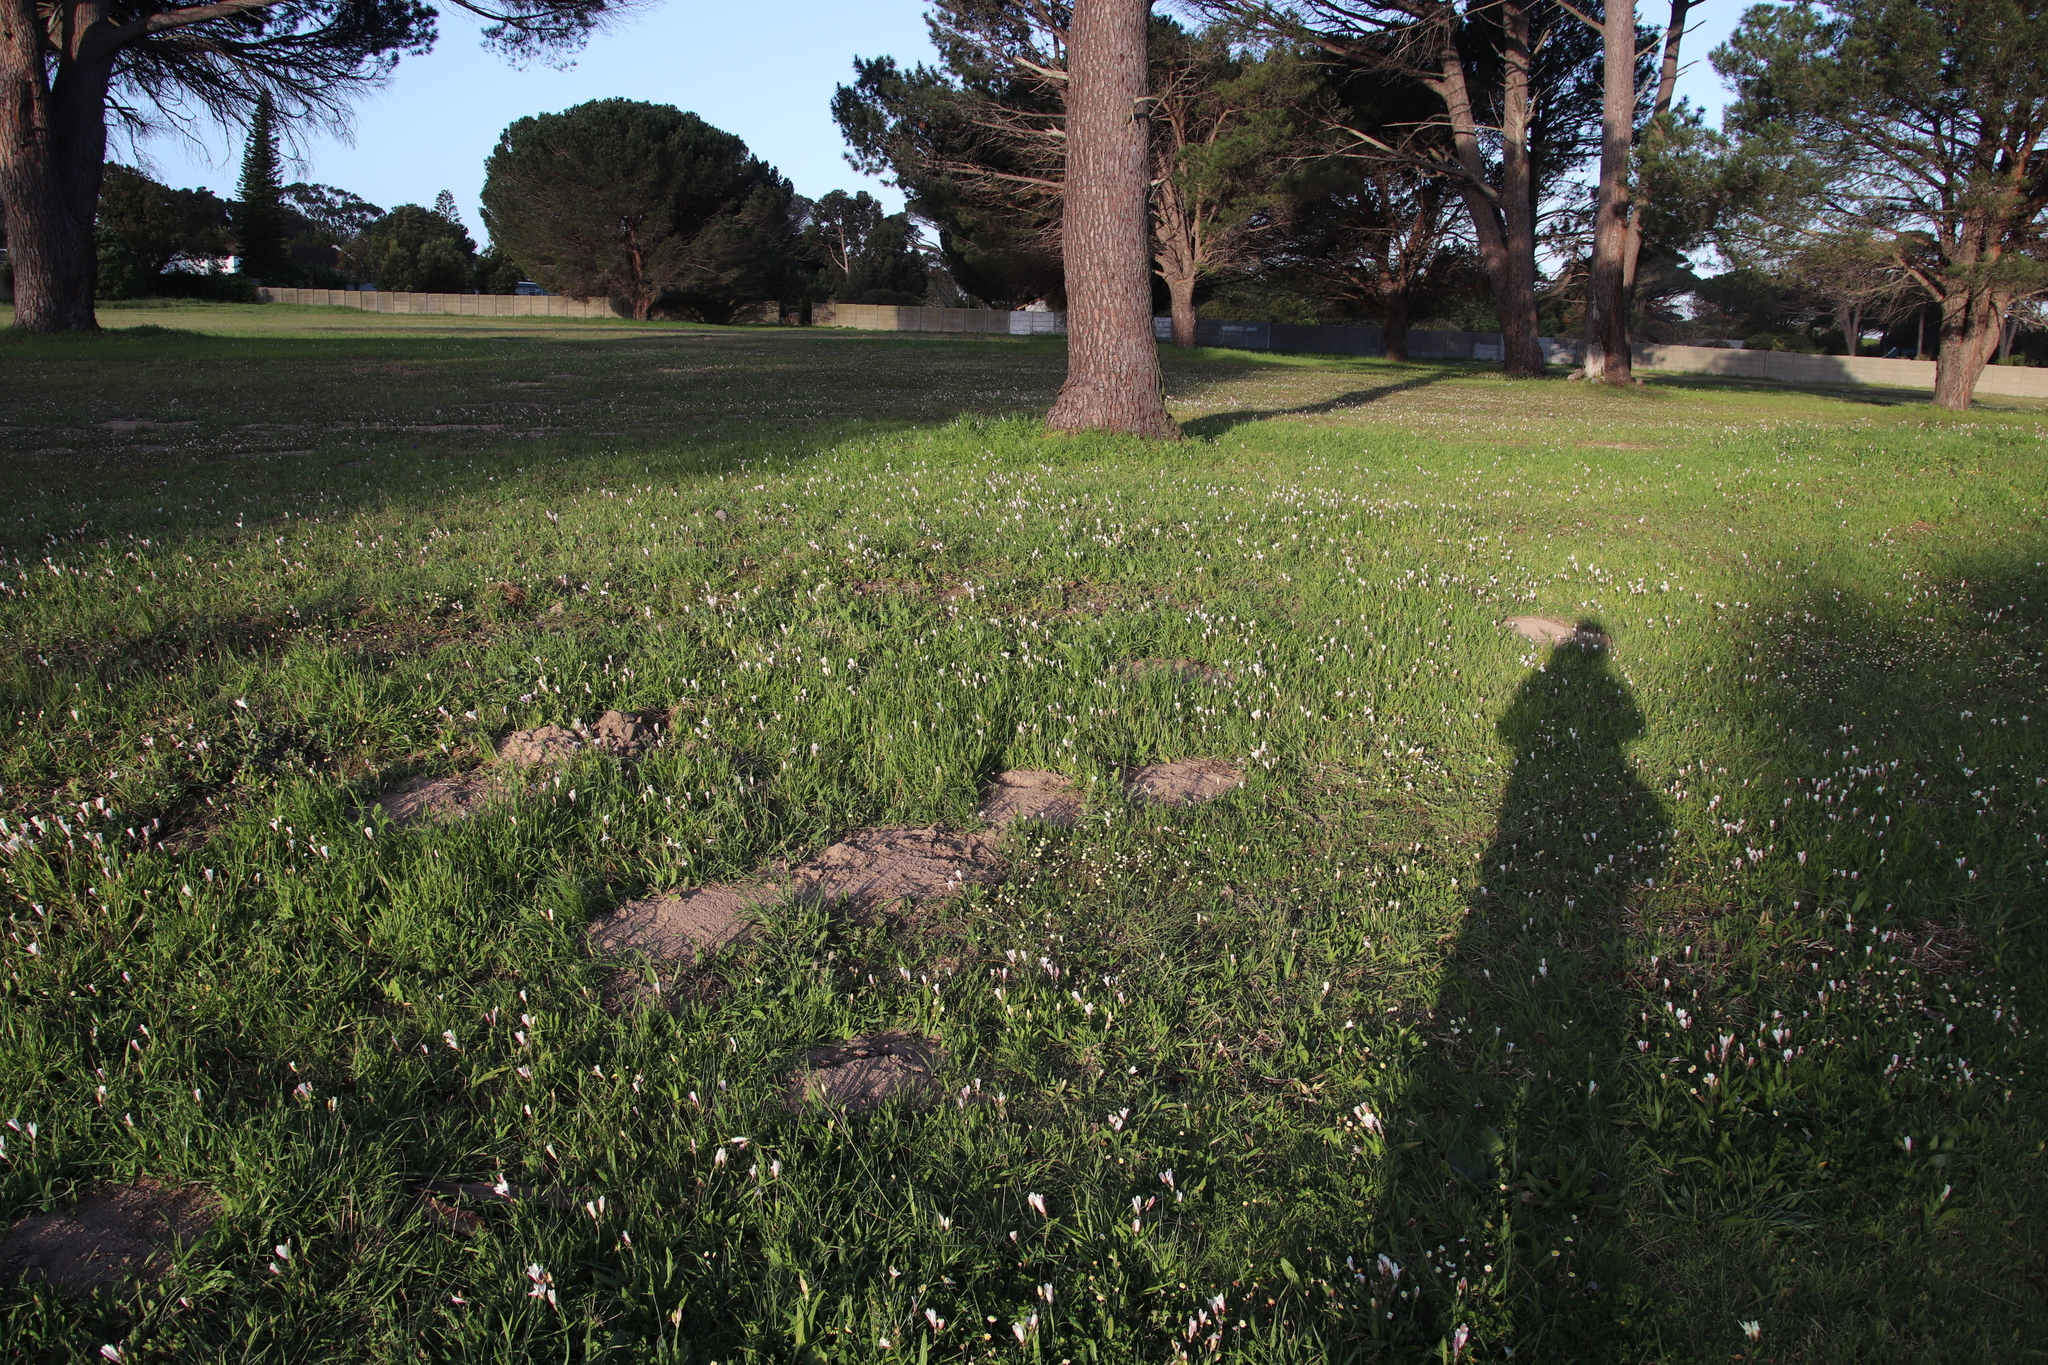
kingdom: Plantae
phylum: Tracheophyta
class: Liliopsida
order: Asparagales
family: Iridaceae
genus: Sparaxis
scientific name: Sparaxis bulbifera
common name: Harlequin-flower
